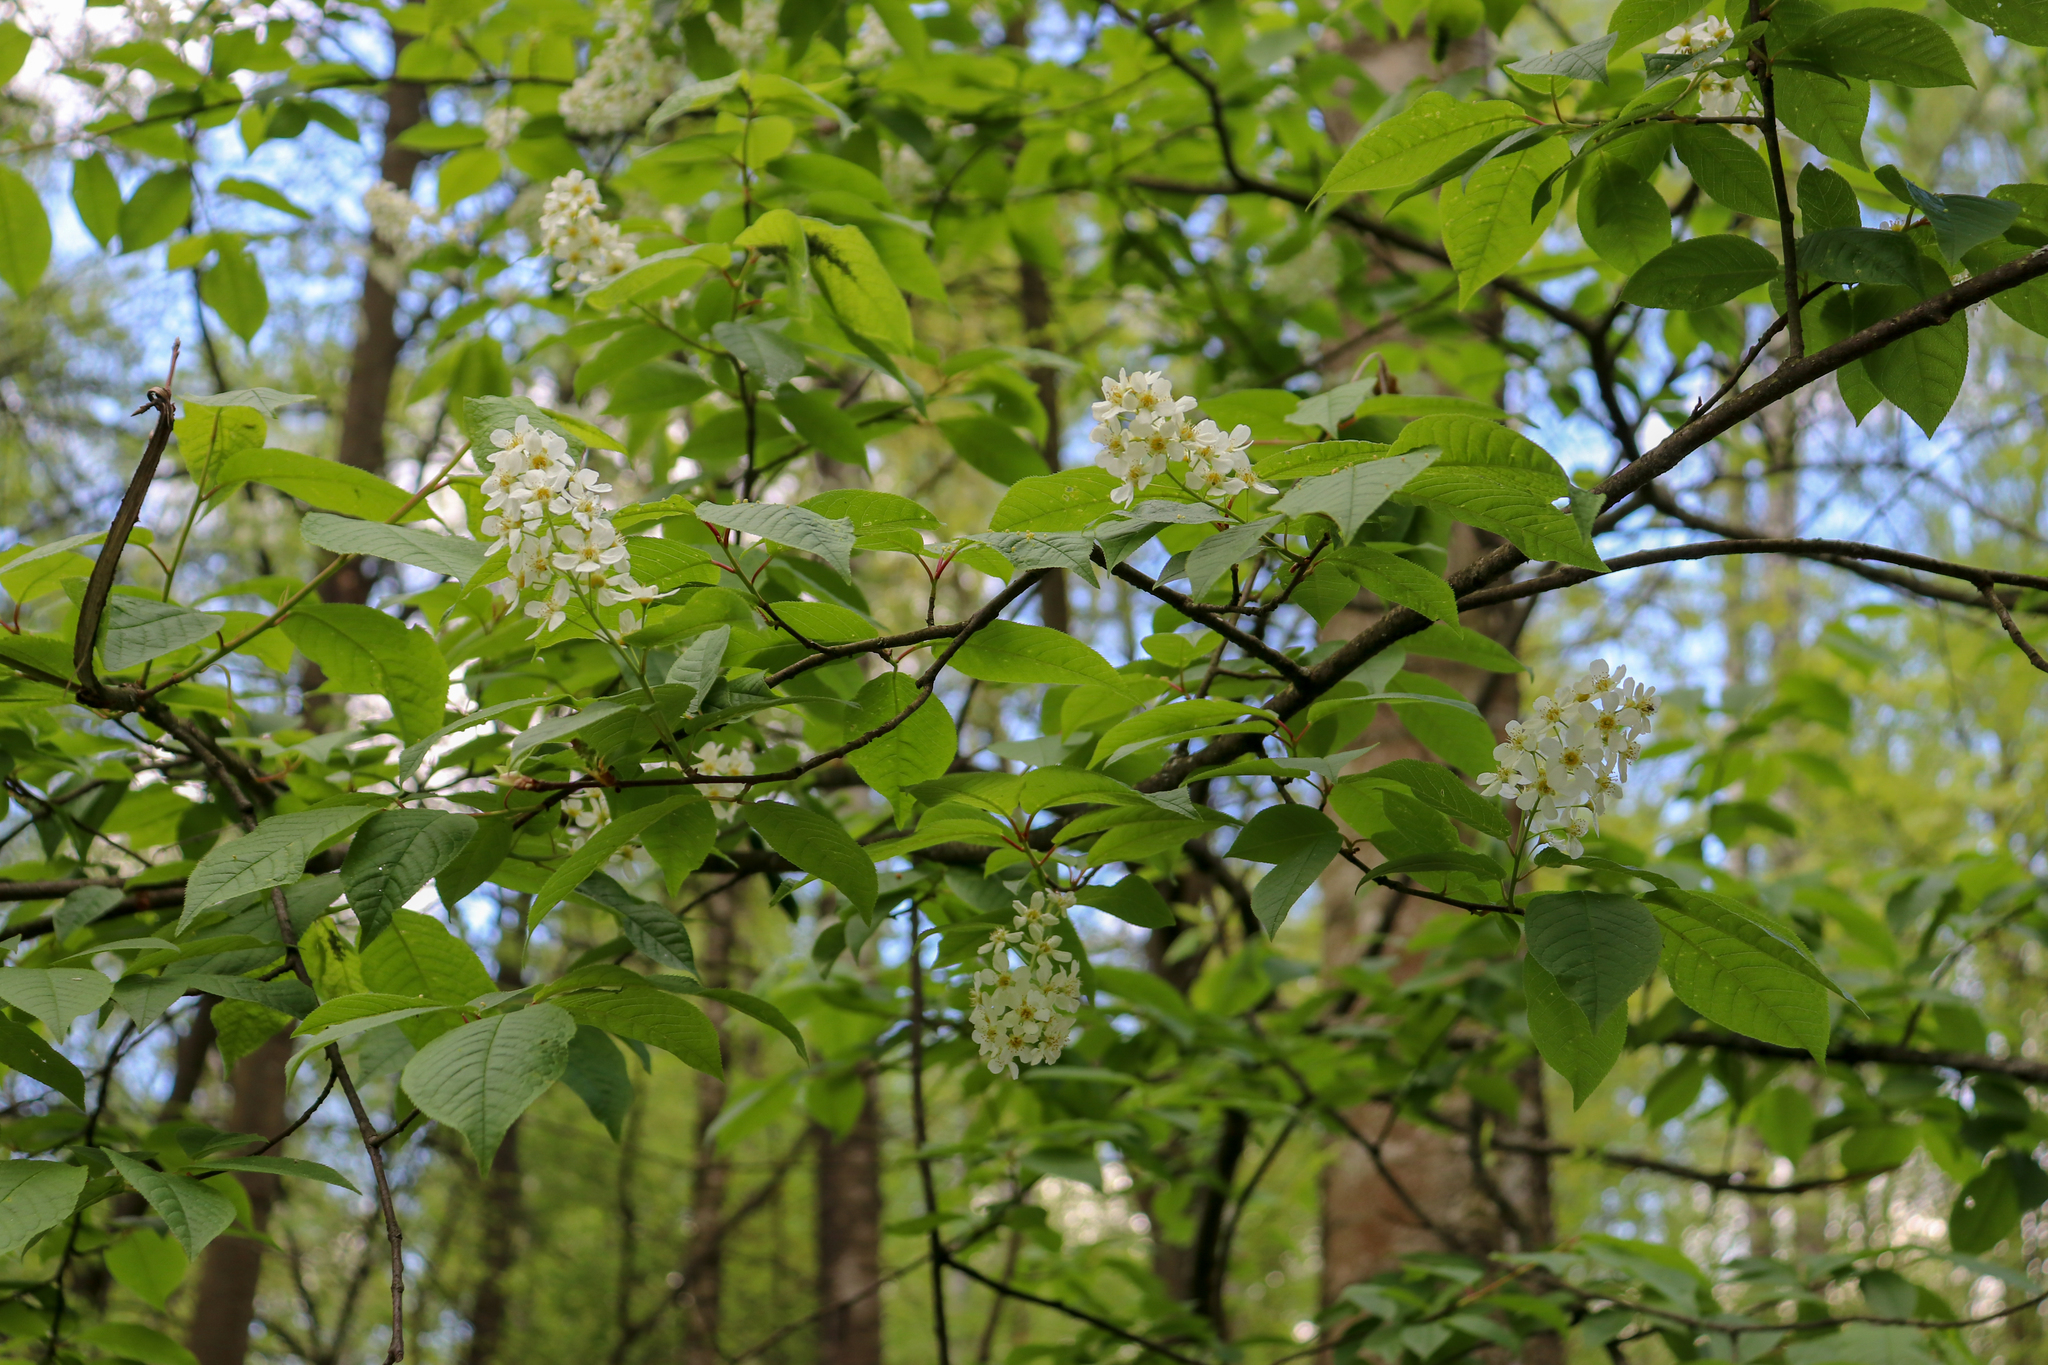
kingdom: Plantae
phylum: Tracheophyta
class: Magnoliopsida
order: Rosales
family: Rosaceae
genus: Prunus
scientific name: Prunus padus
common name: Bird cherry
